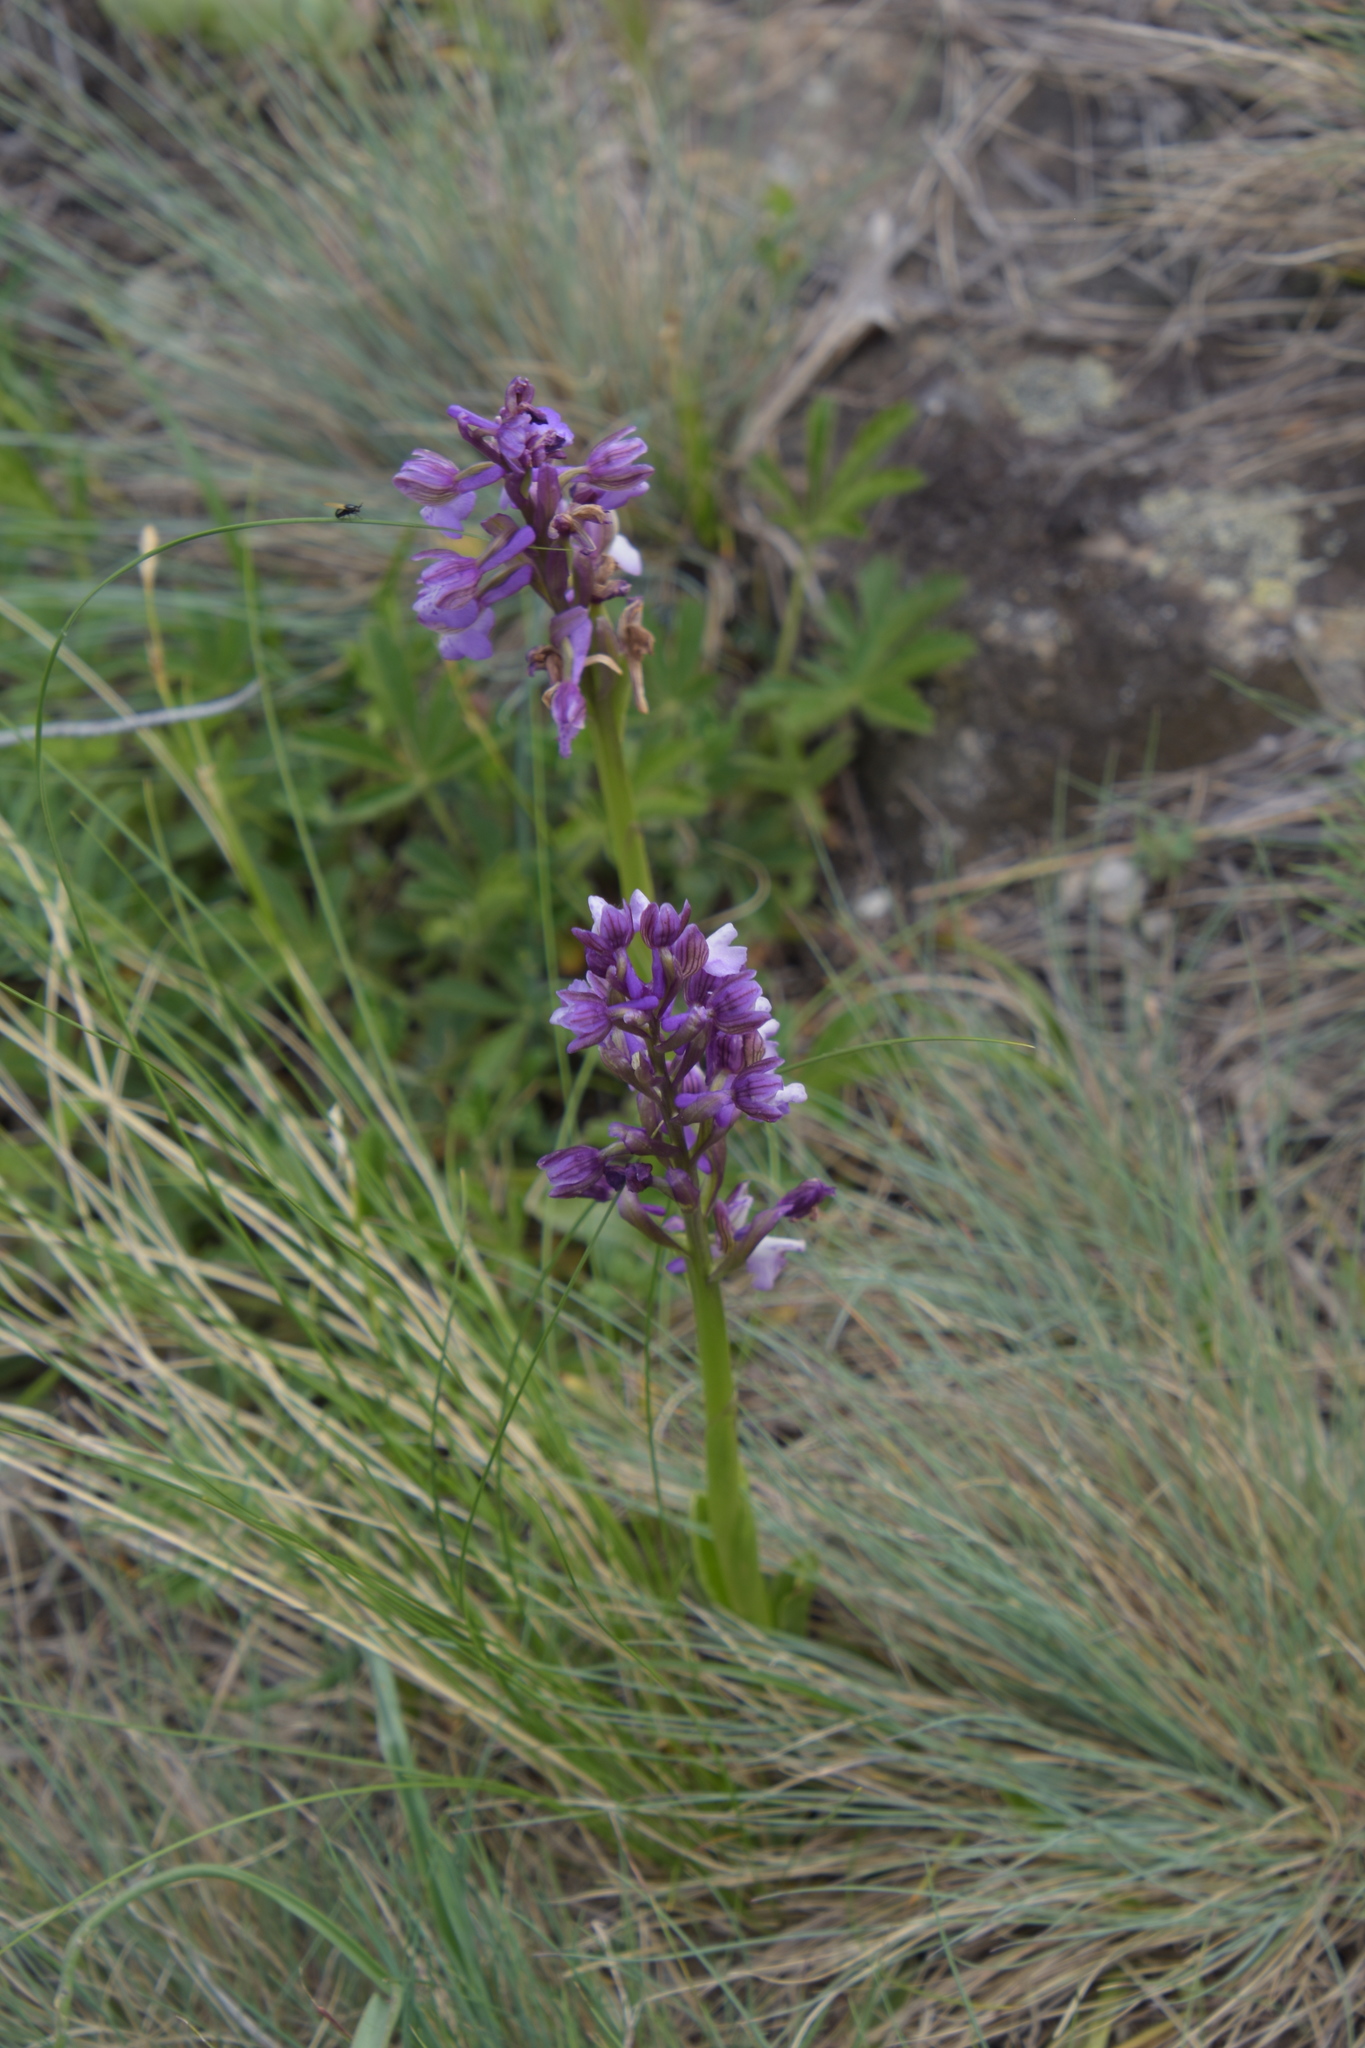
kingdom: Plantae
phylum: Tracheophyta
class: Liliopsida
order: Asparagales
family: Orchidaceae
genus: Anacamptis
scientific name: Anacamptis morio
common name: Green-winged orchid
